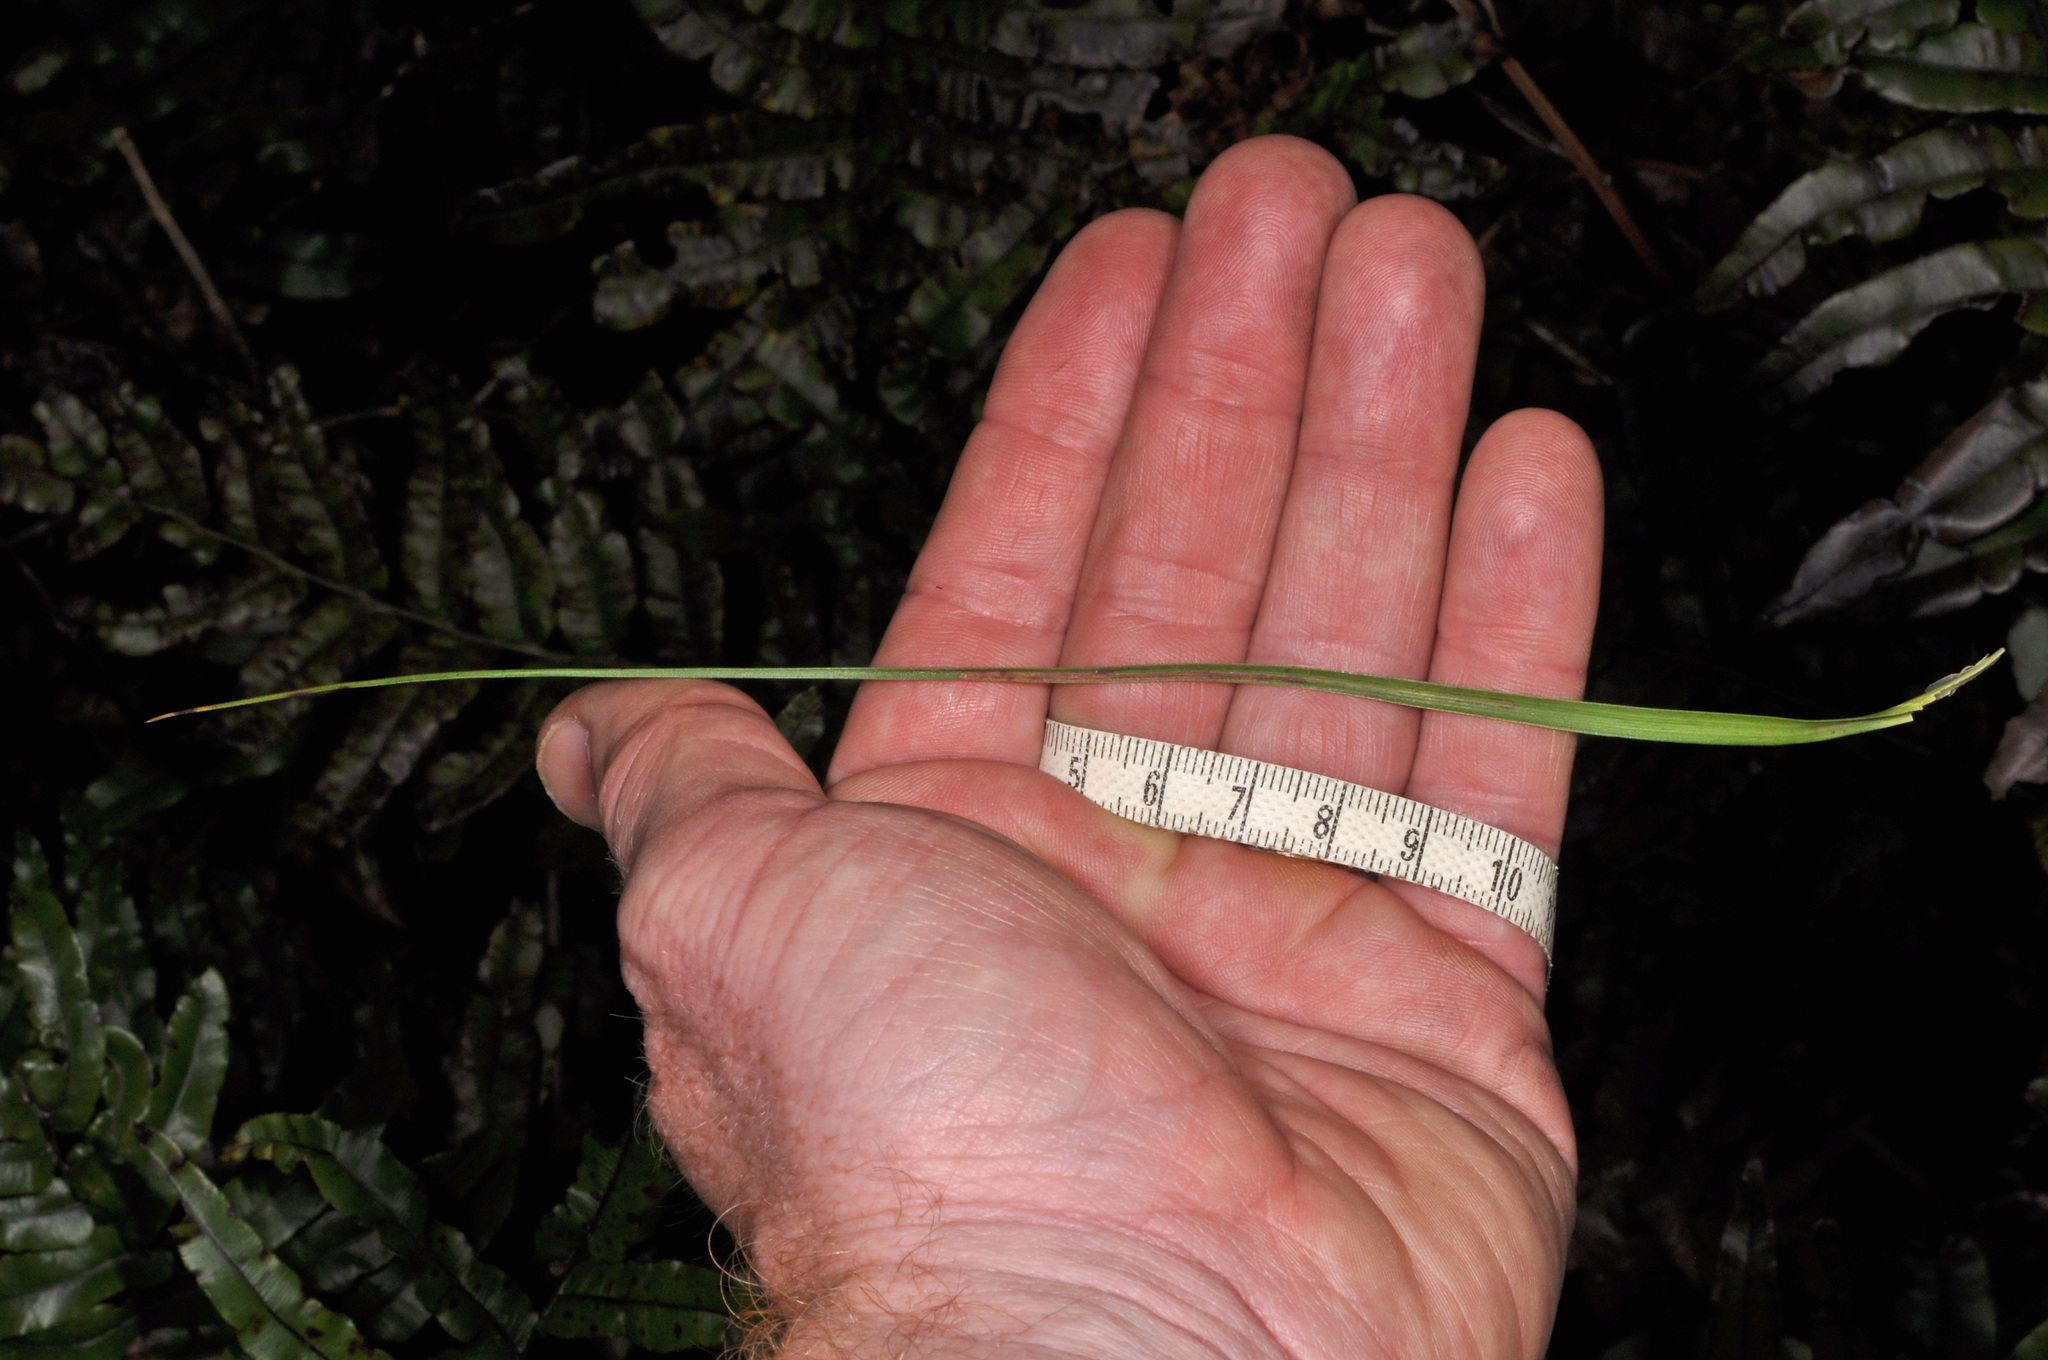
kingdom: Plantae
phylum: Tracheophyta
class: Magnoliopsida
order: Ericales
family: Ericaceae
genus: Dracophyllum
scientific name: Dracophyllum longifolium
